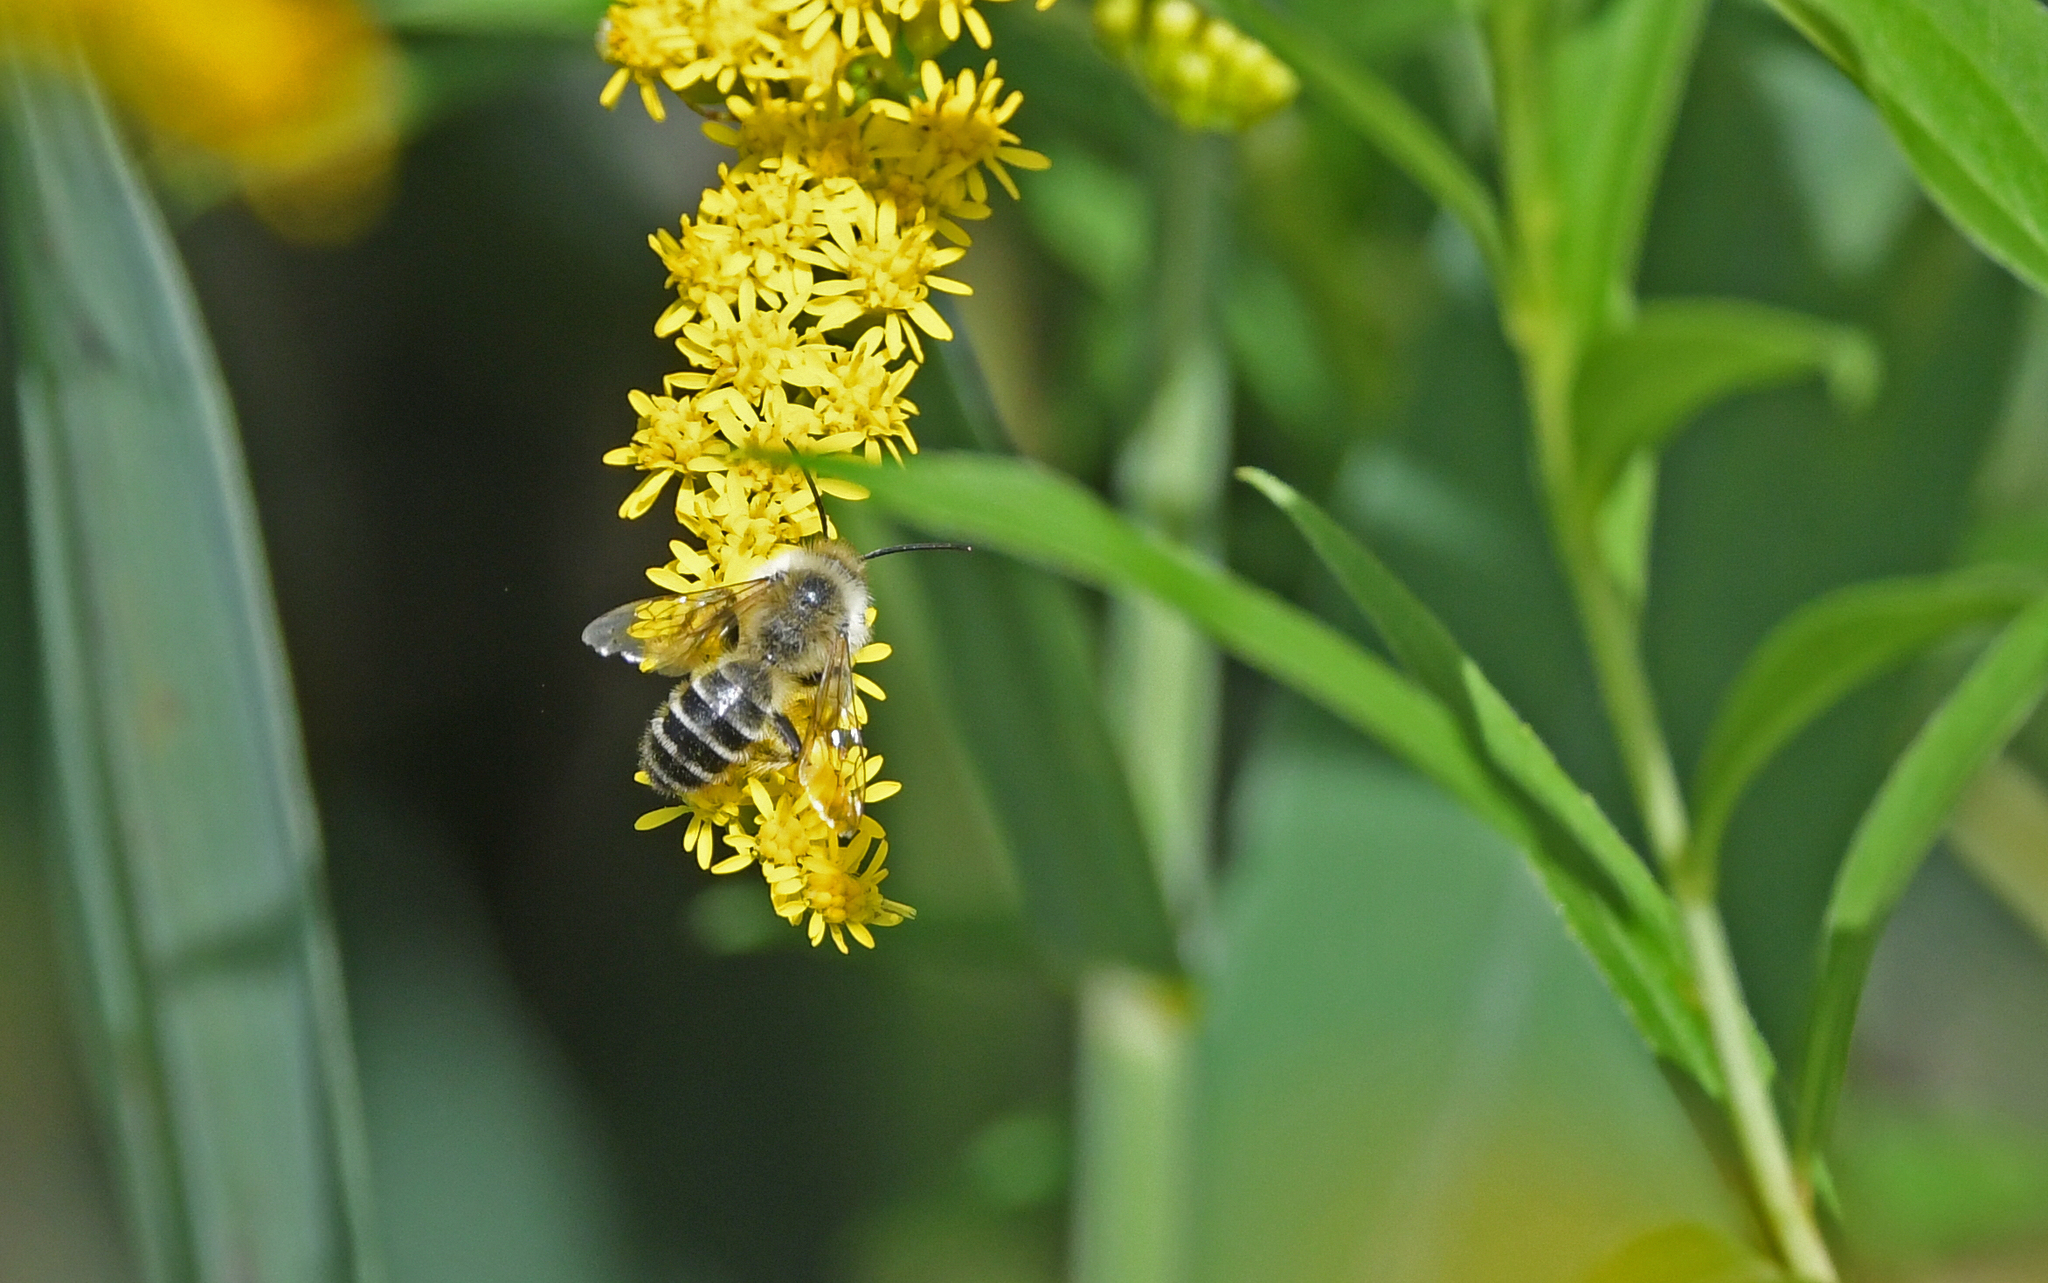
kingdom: Animalia
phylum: Arthropoda
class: Insecta
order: Hymenoptera
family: Melittidae
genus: Dasypoda
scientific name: Dasypoda hirtipes
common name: Pantaloon bee
